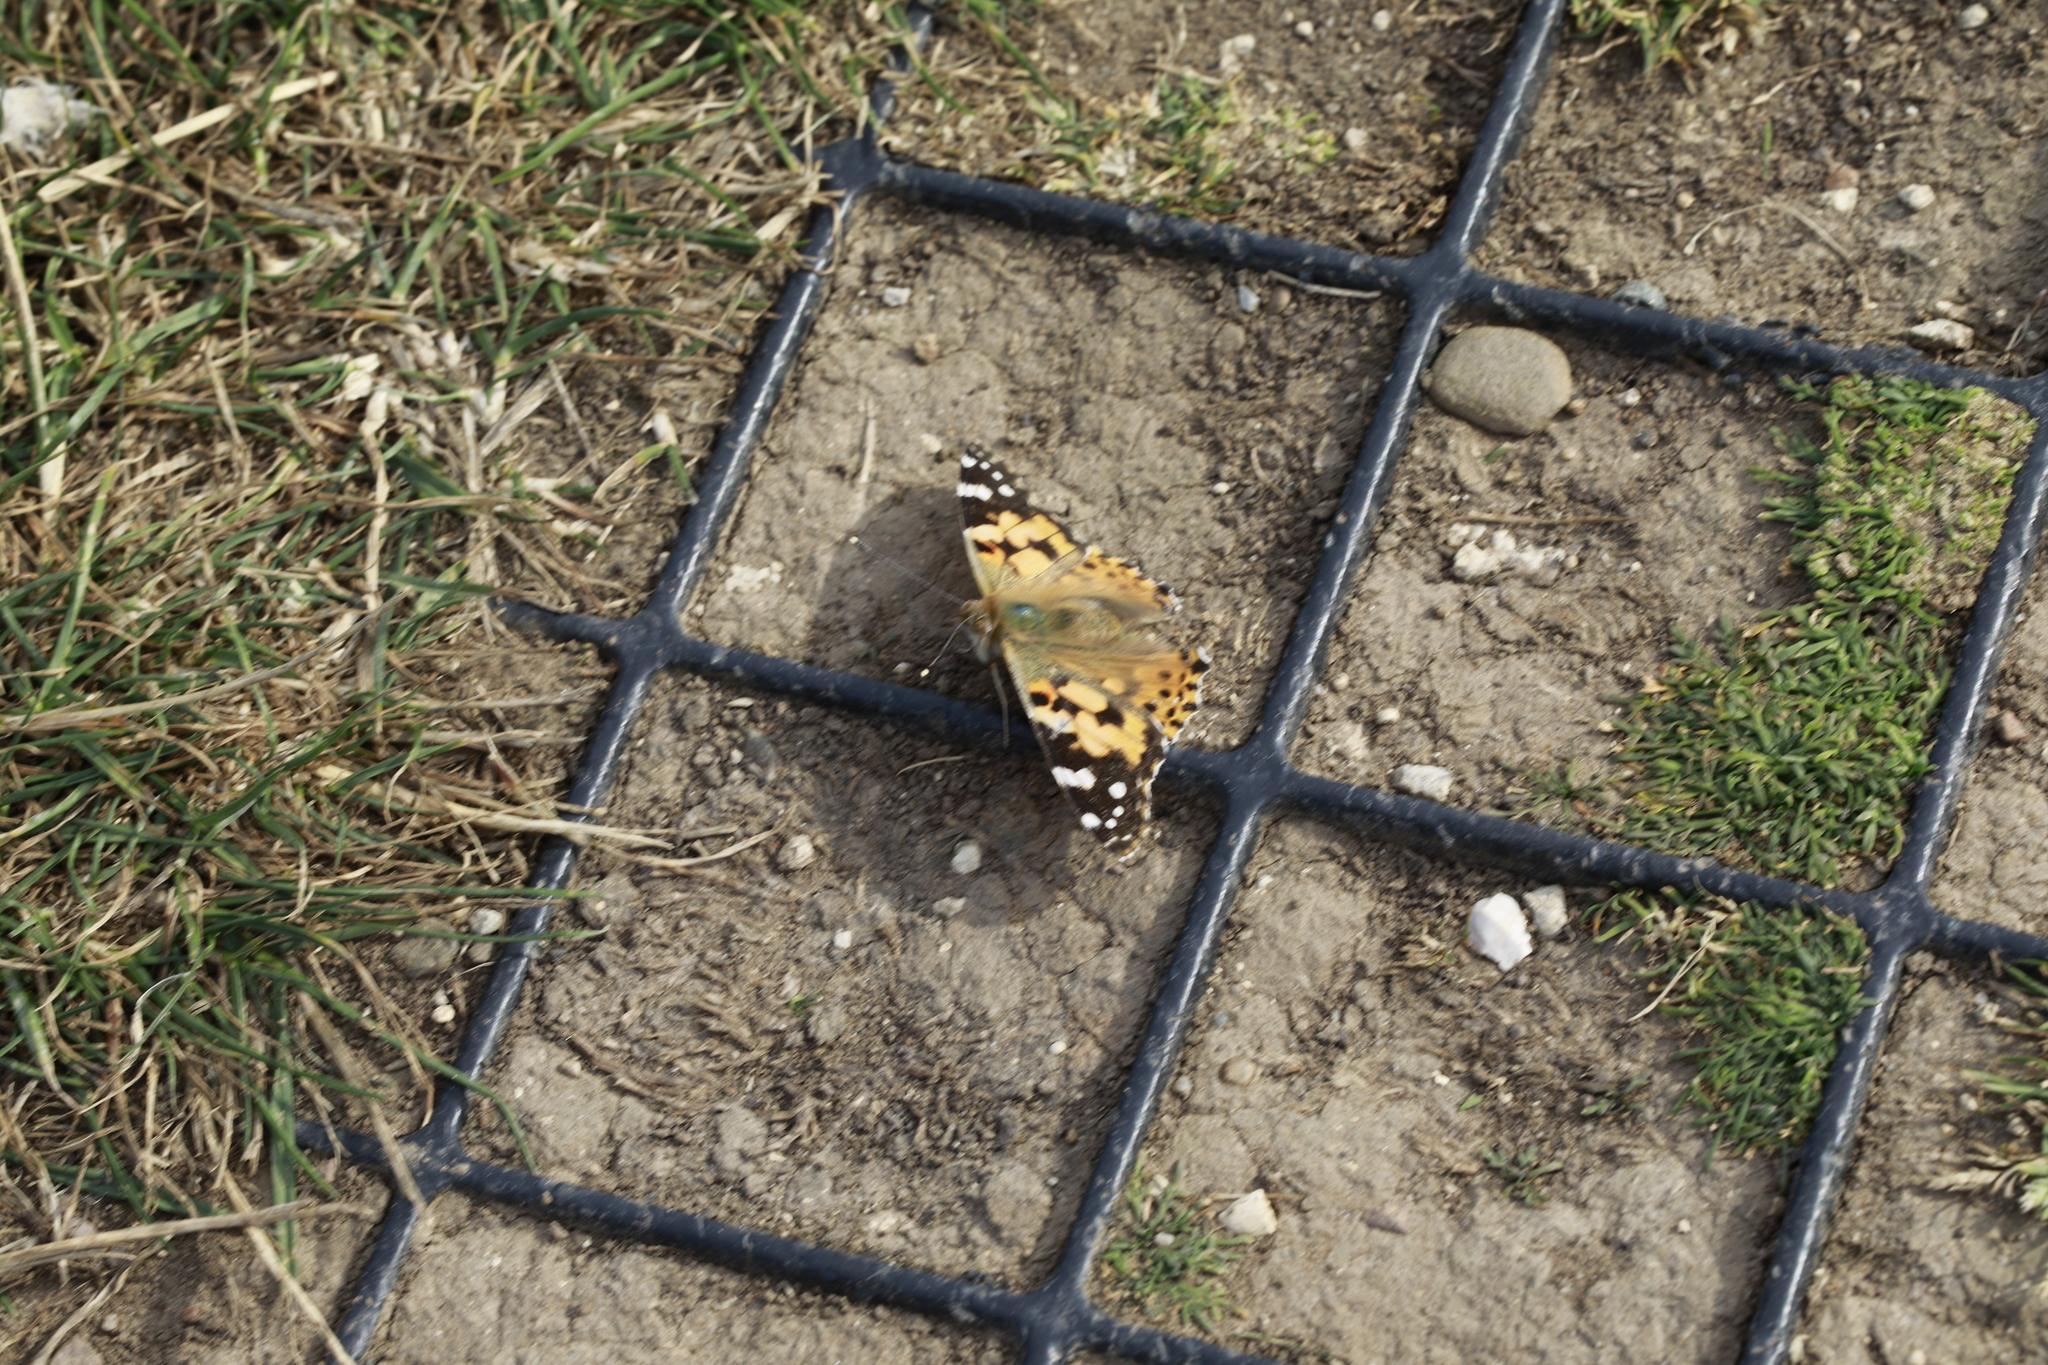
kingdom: Animalia
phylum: Arthropoda
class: Insecta
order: Lepidoptera
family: Nymphalidae
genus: Vanessa
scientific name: Vanessa cardui
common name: Painted lady
